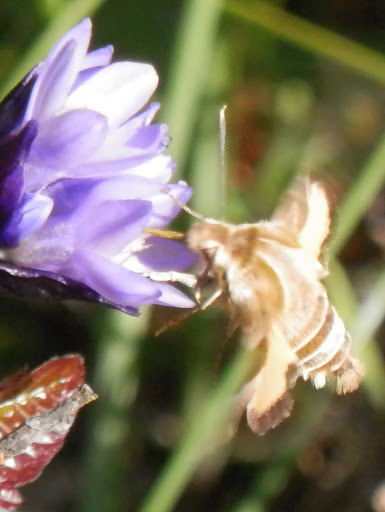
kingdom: Animalia
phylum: Arthropoda
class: Insecta
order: Lepidoptera
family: Sphingidae
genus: Proserpinus
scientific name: Proserpinus clarkiae
